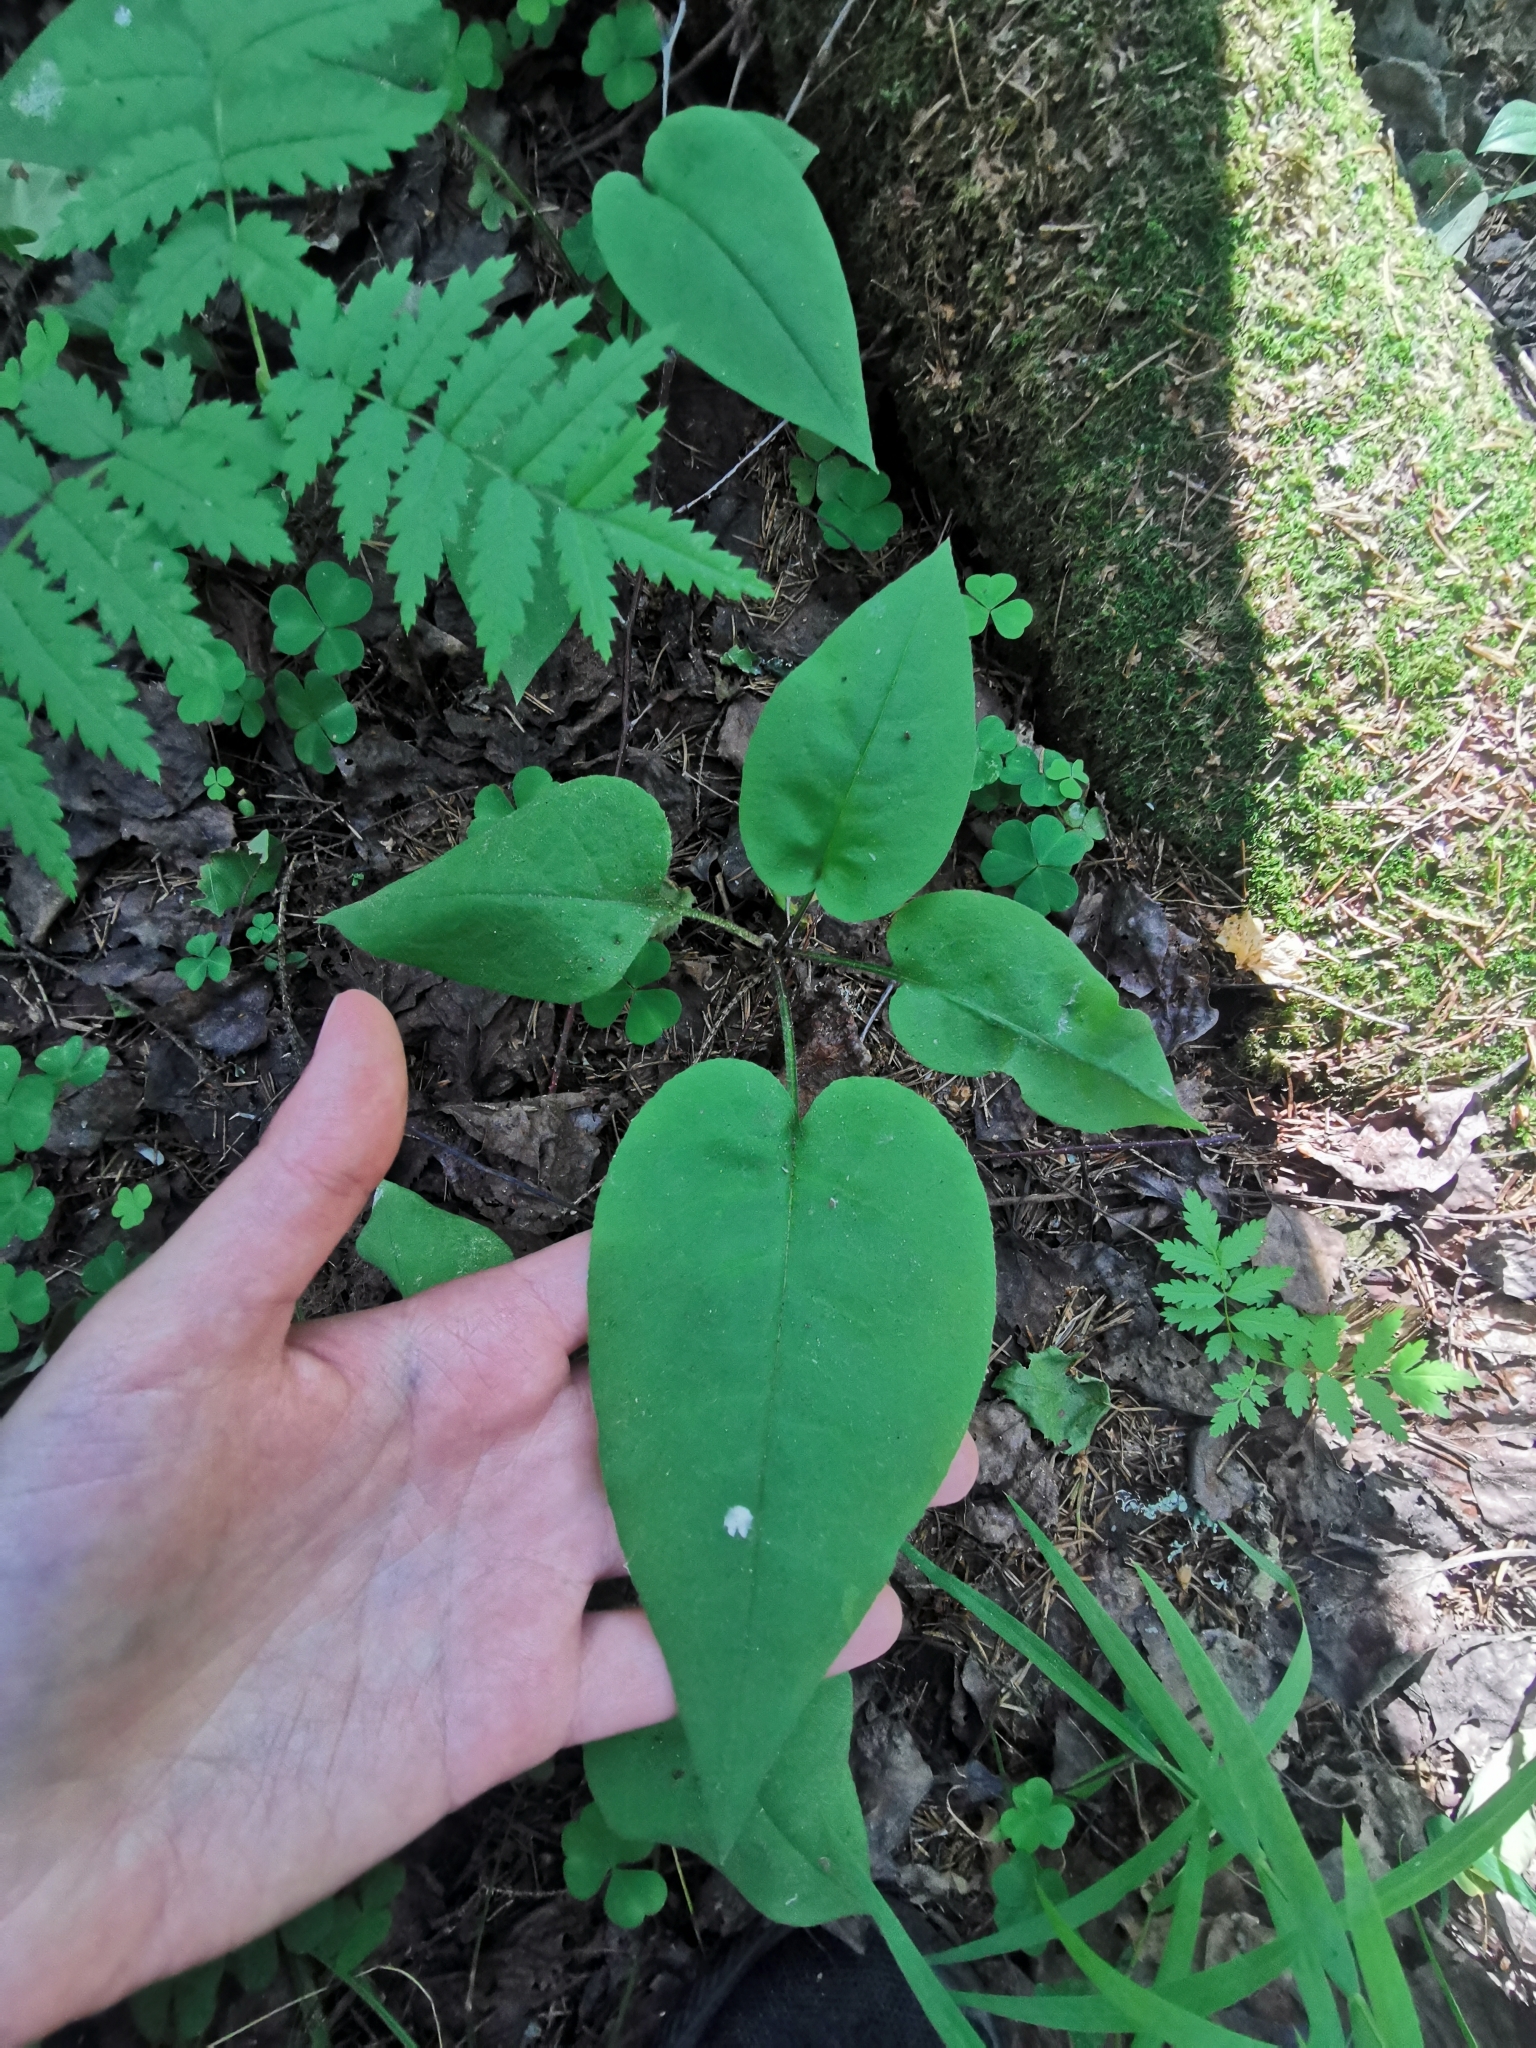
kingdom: Plantae
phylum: Tracheophyta
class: Magnoliopsida
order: Boraginales
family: Boraginaceae
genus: Pulmonaria
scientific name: Pulmonaria obscura
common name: Suffolk lungwort
